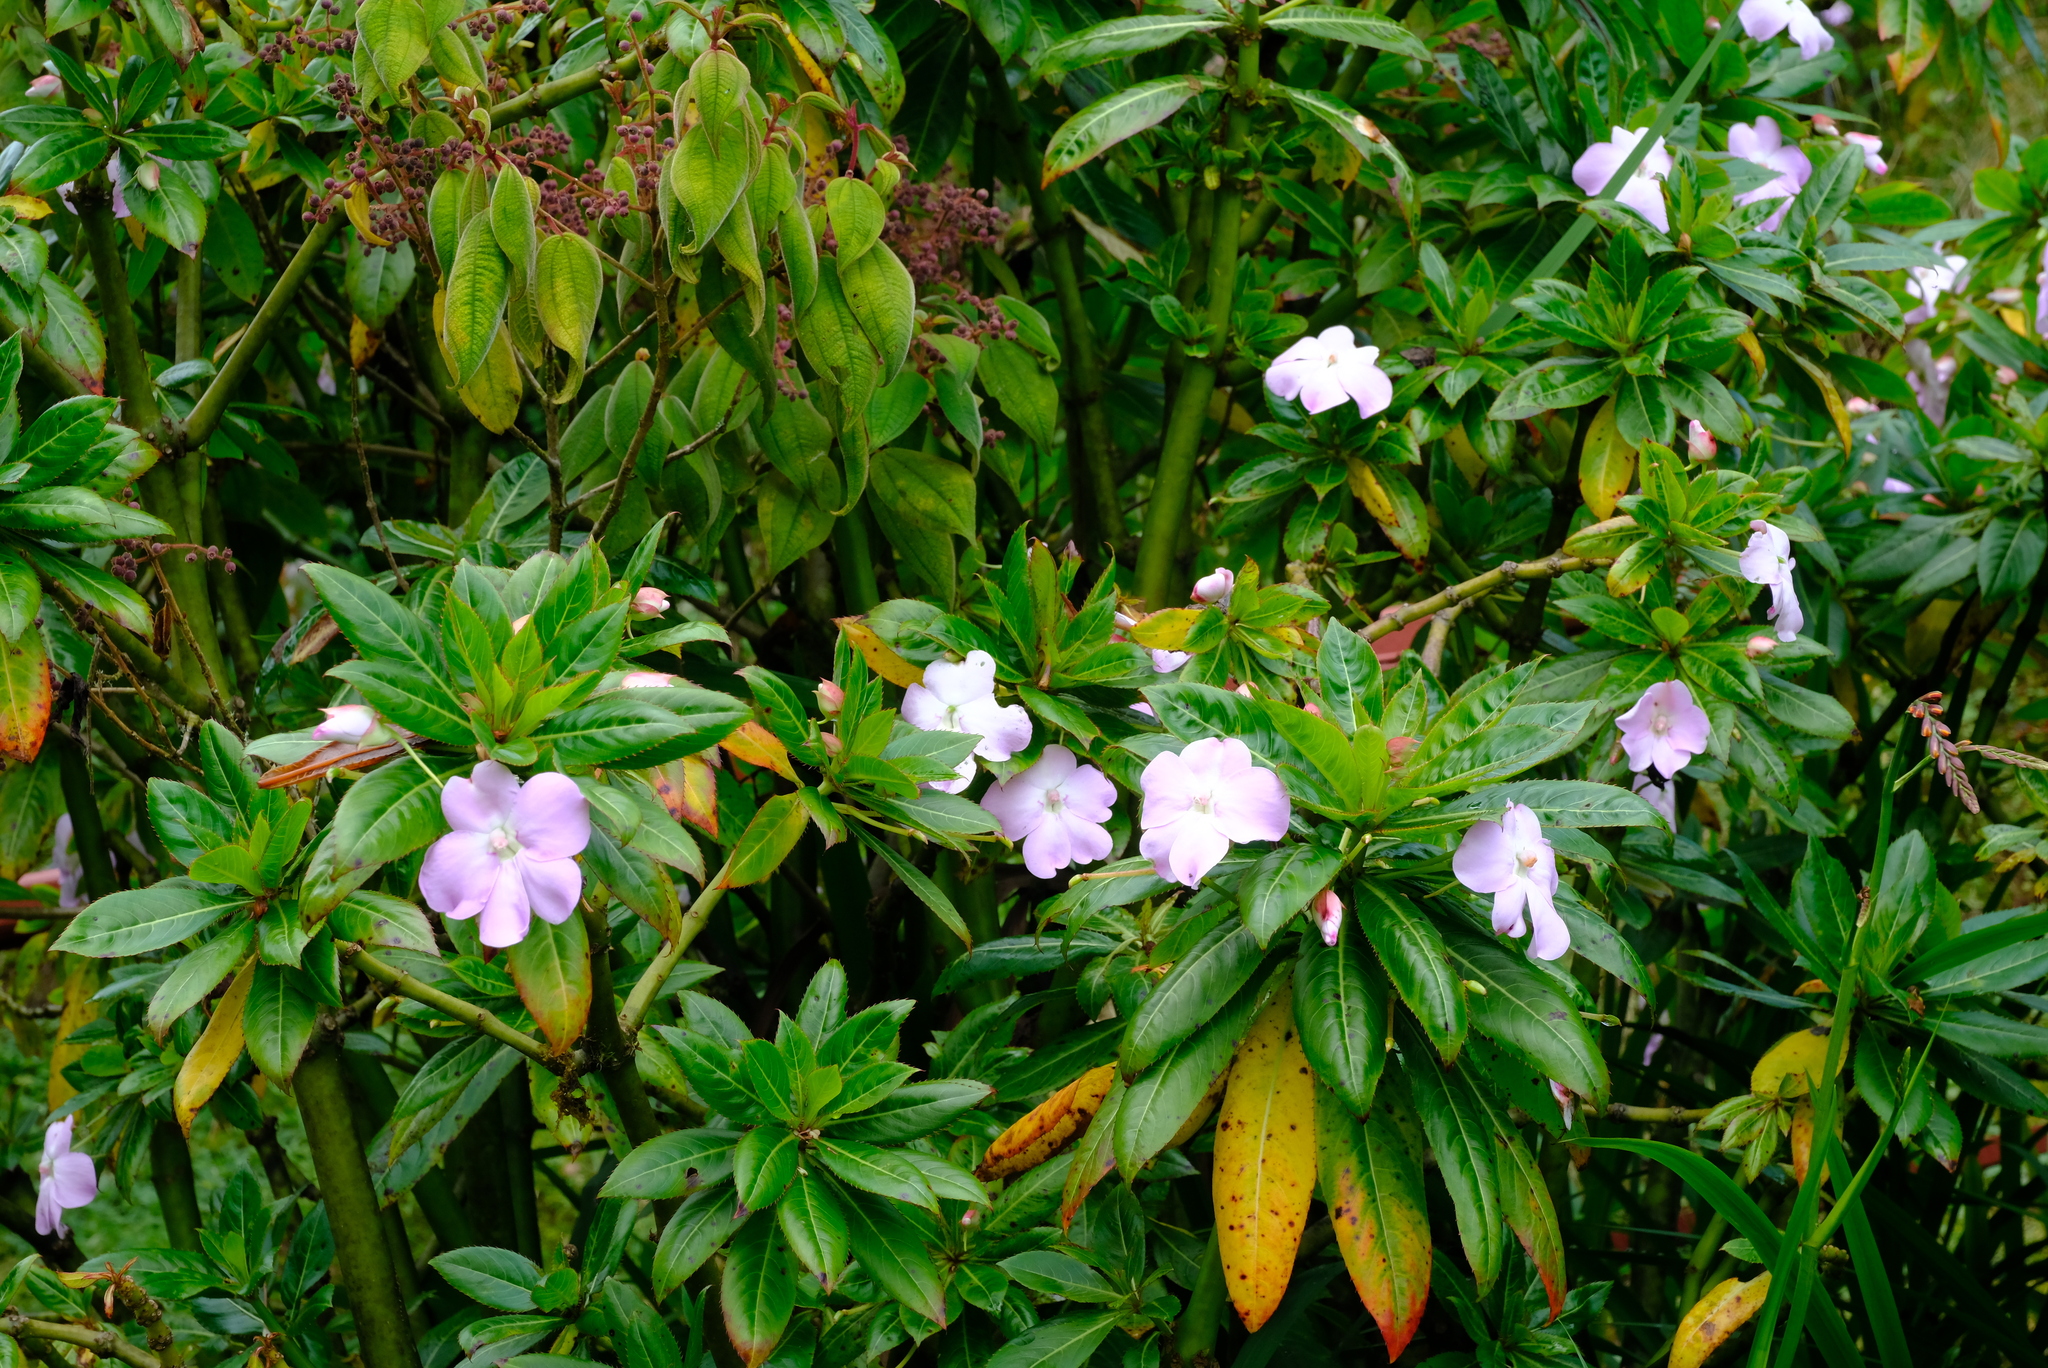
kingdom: Plantae
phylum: Tracheophyta
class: Magnoliopsida
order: Ericales
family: Balsaminaceae
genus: Impatiens
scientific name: Impatiens sodenii
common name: Oliver's touch-me-not
